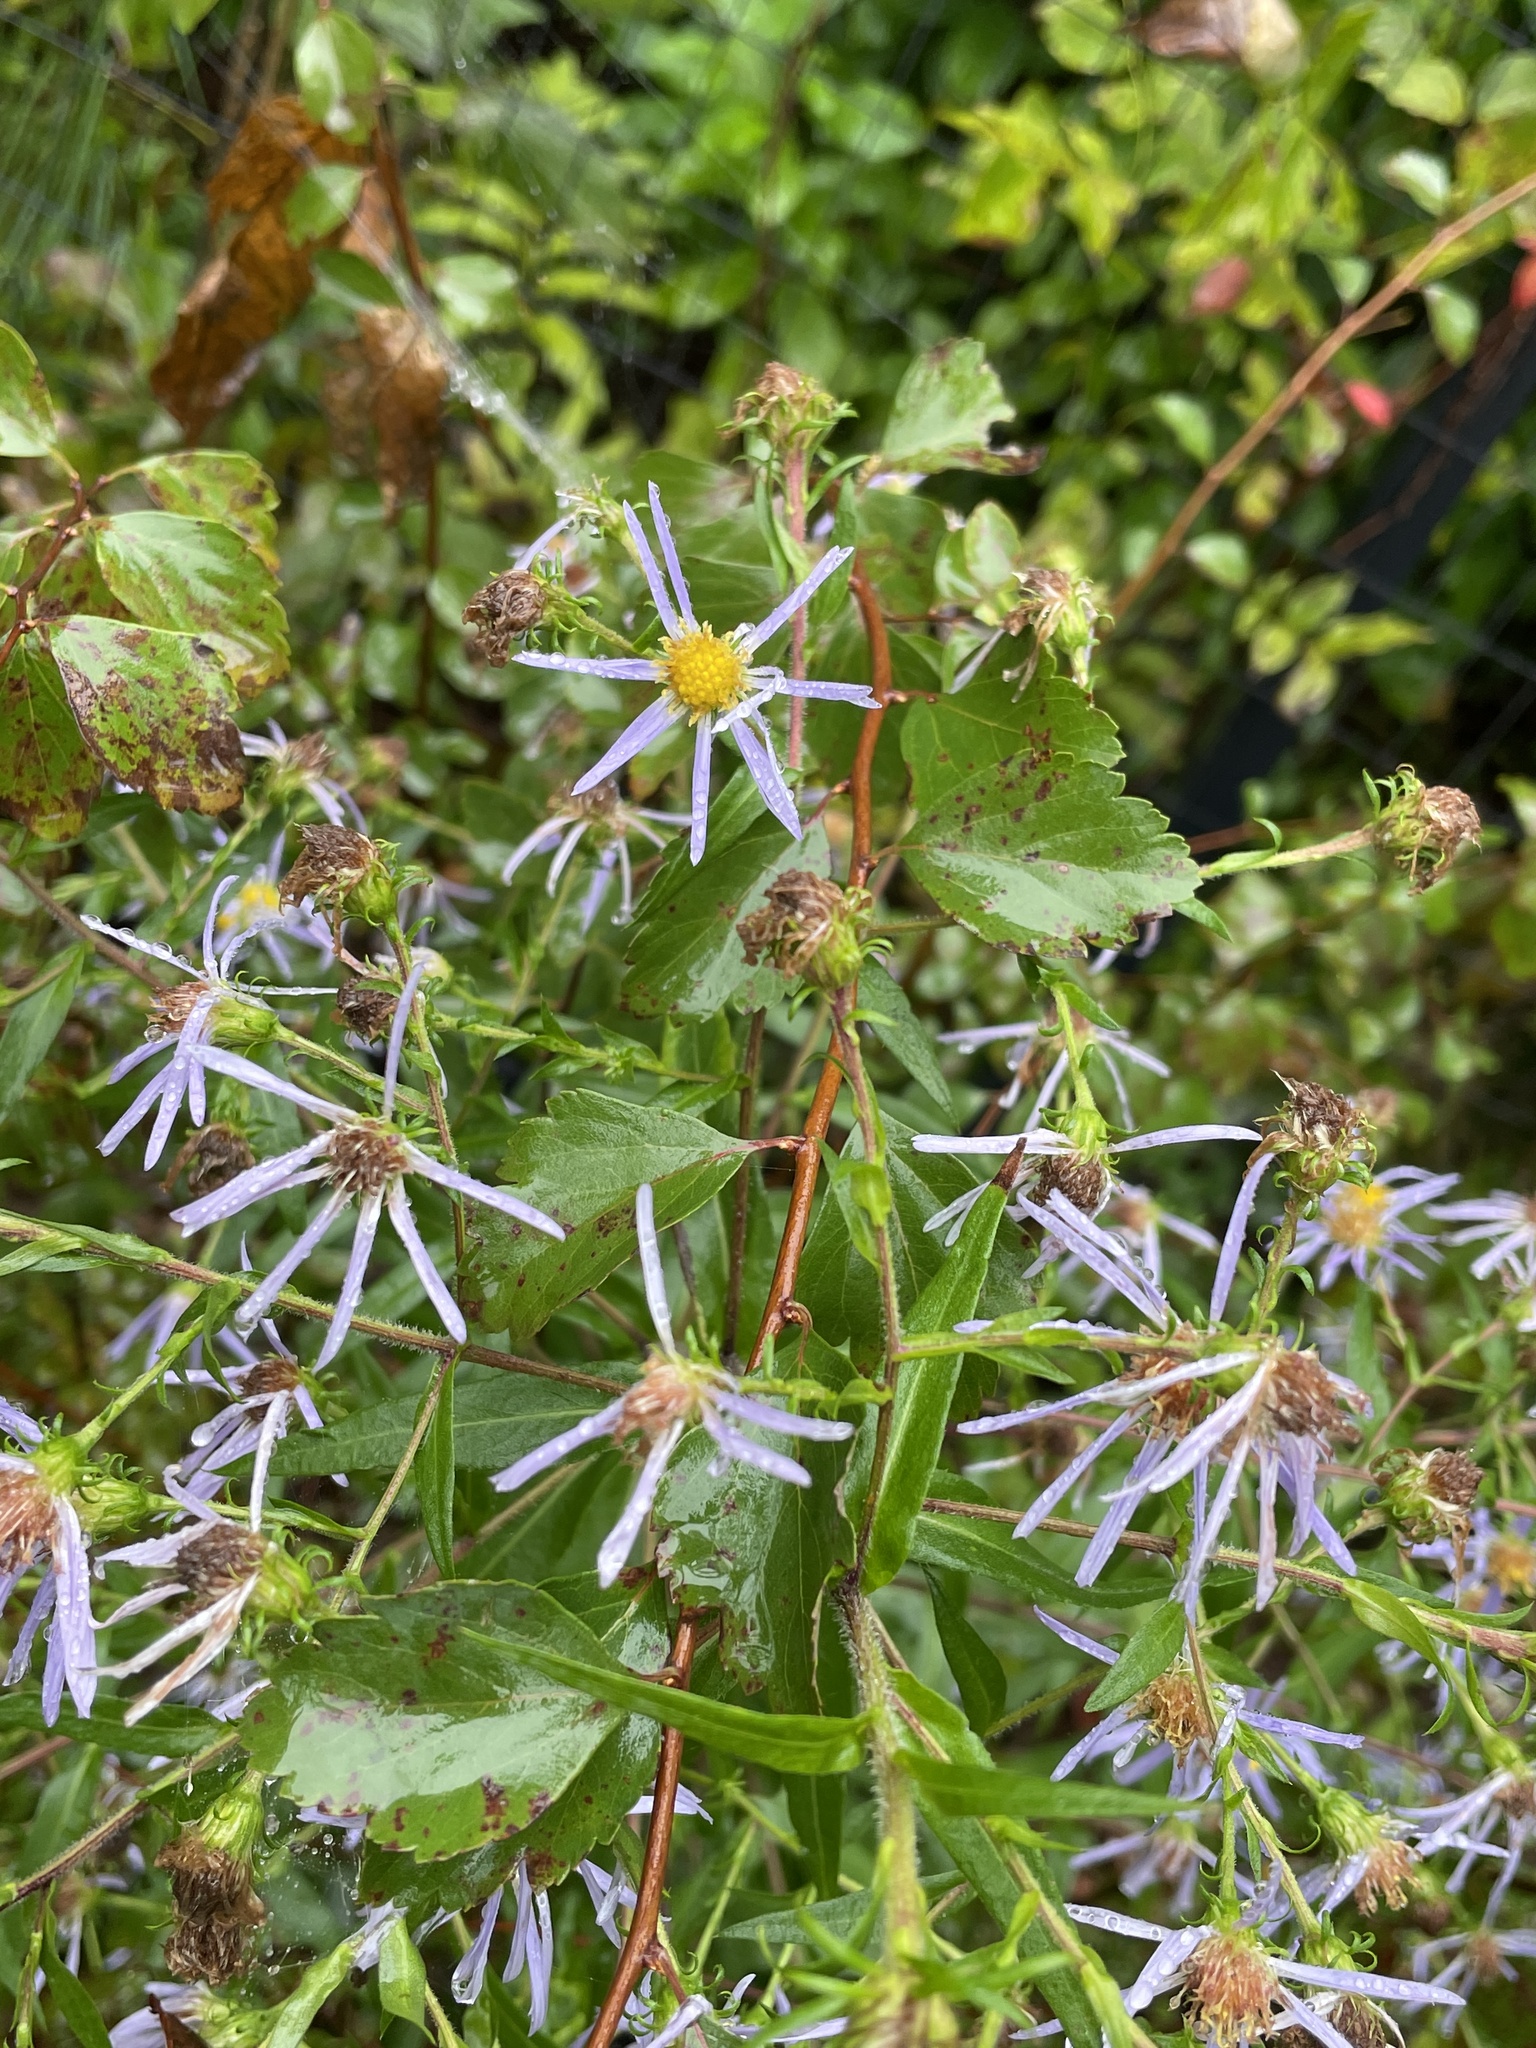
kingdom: Plantae
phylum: Tracheophyta
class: Magnoliopsida
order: Asterales
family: Asteraceae
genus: Symphyotrichum
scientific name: Symphyotrichum puniceum
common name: Bog aster
